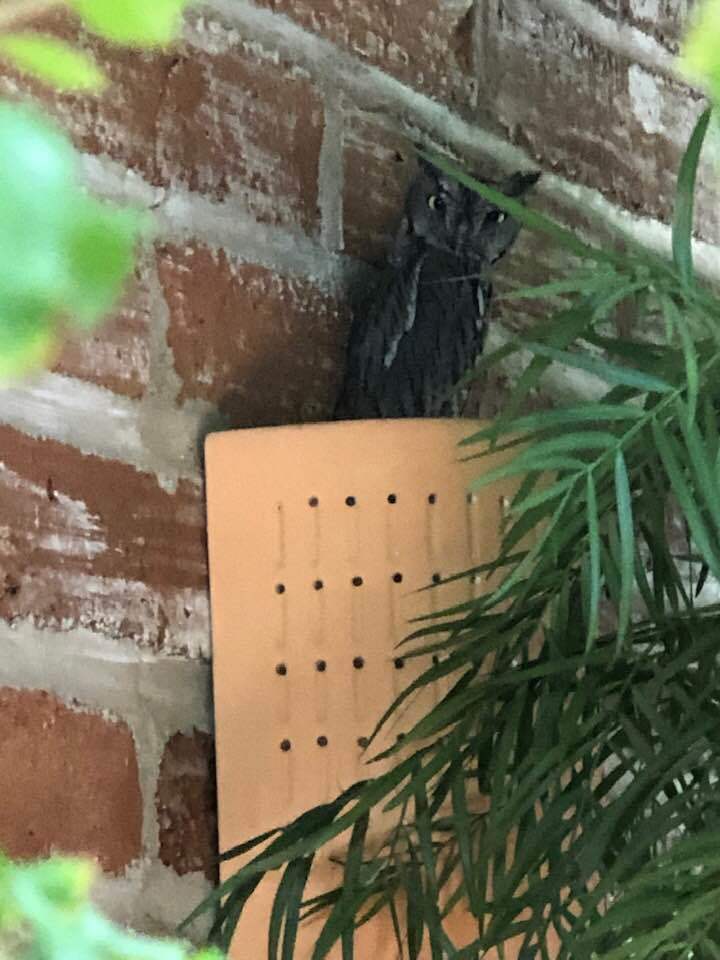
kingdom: Animalia
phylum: Chordata
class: Aves
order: Strigiformes
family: Strigidae
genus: Megascops
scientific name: Megascops kennicottii
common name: Western screech-owl
